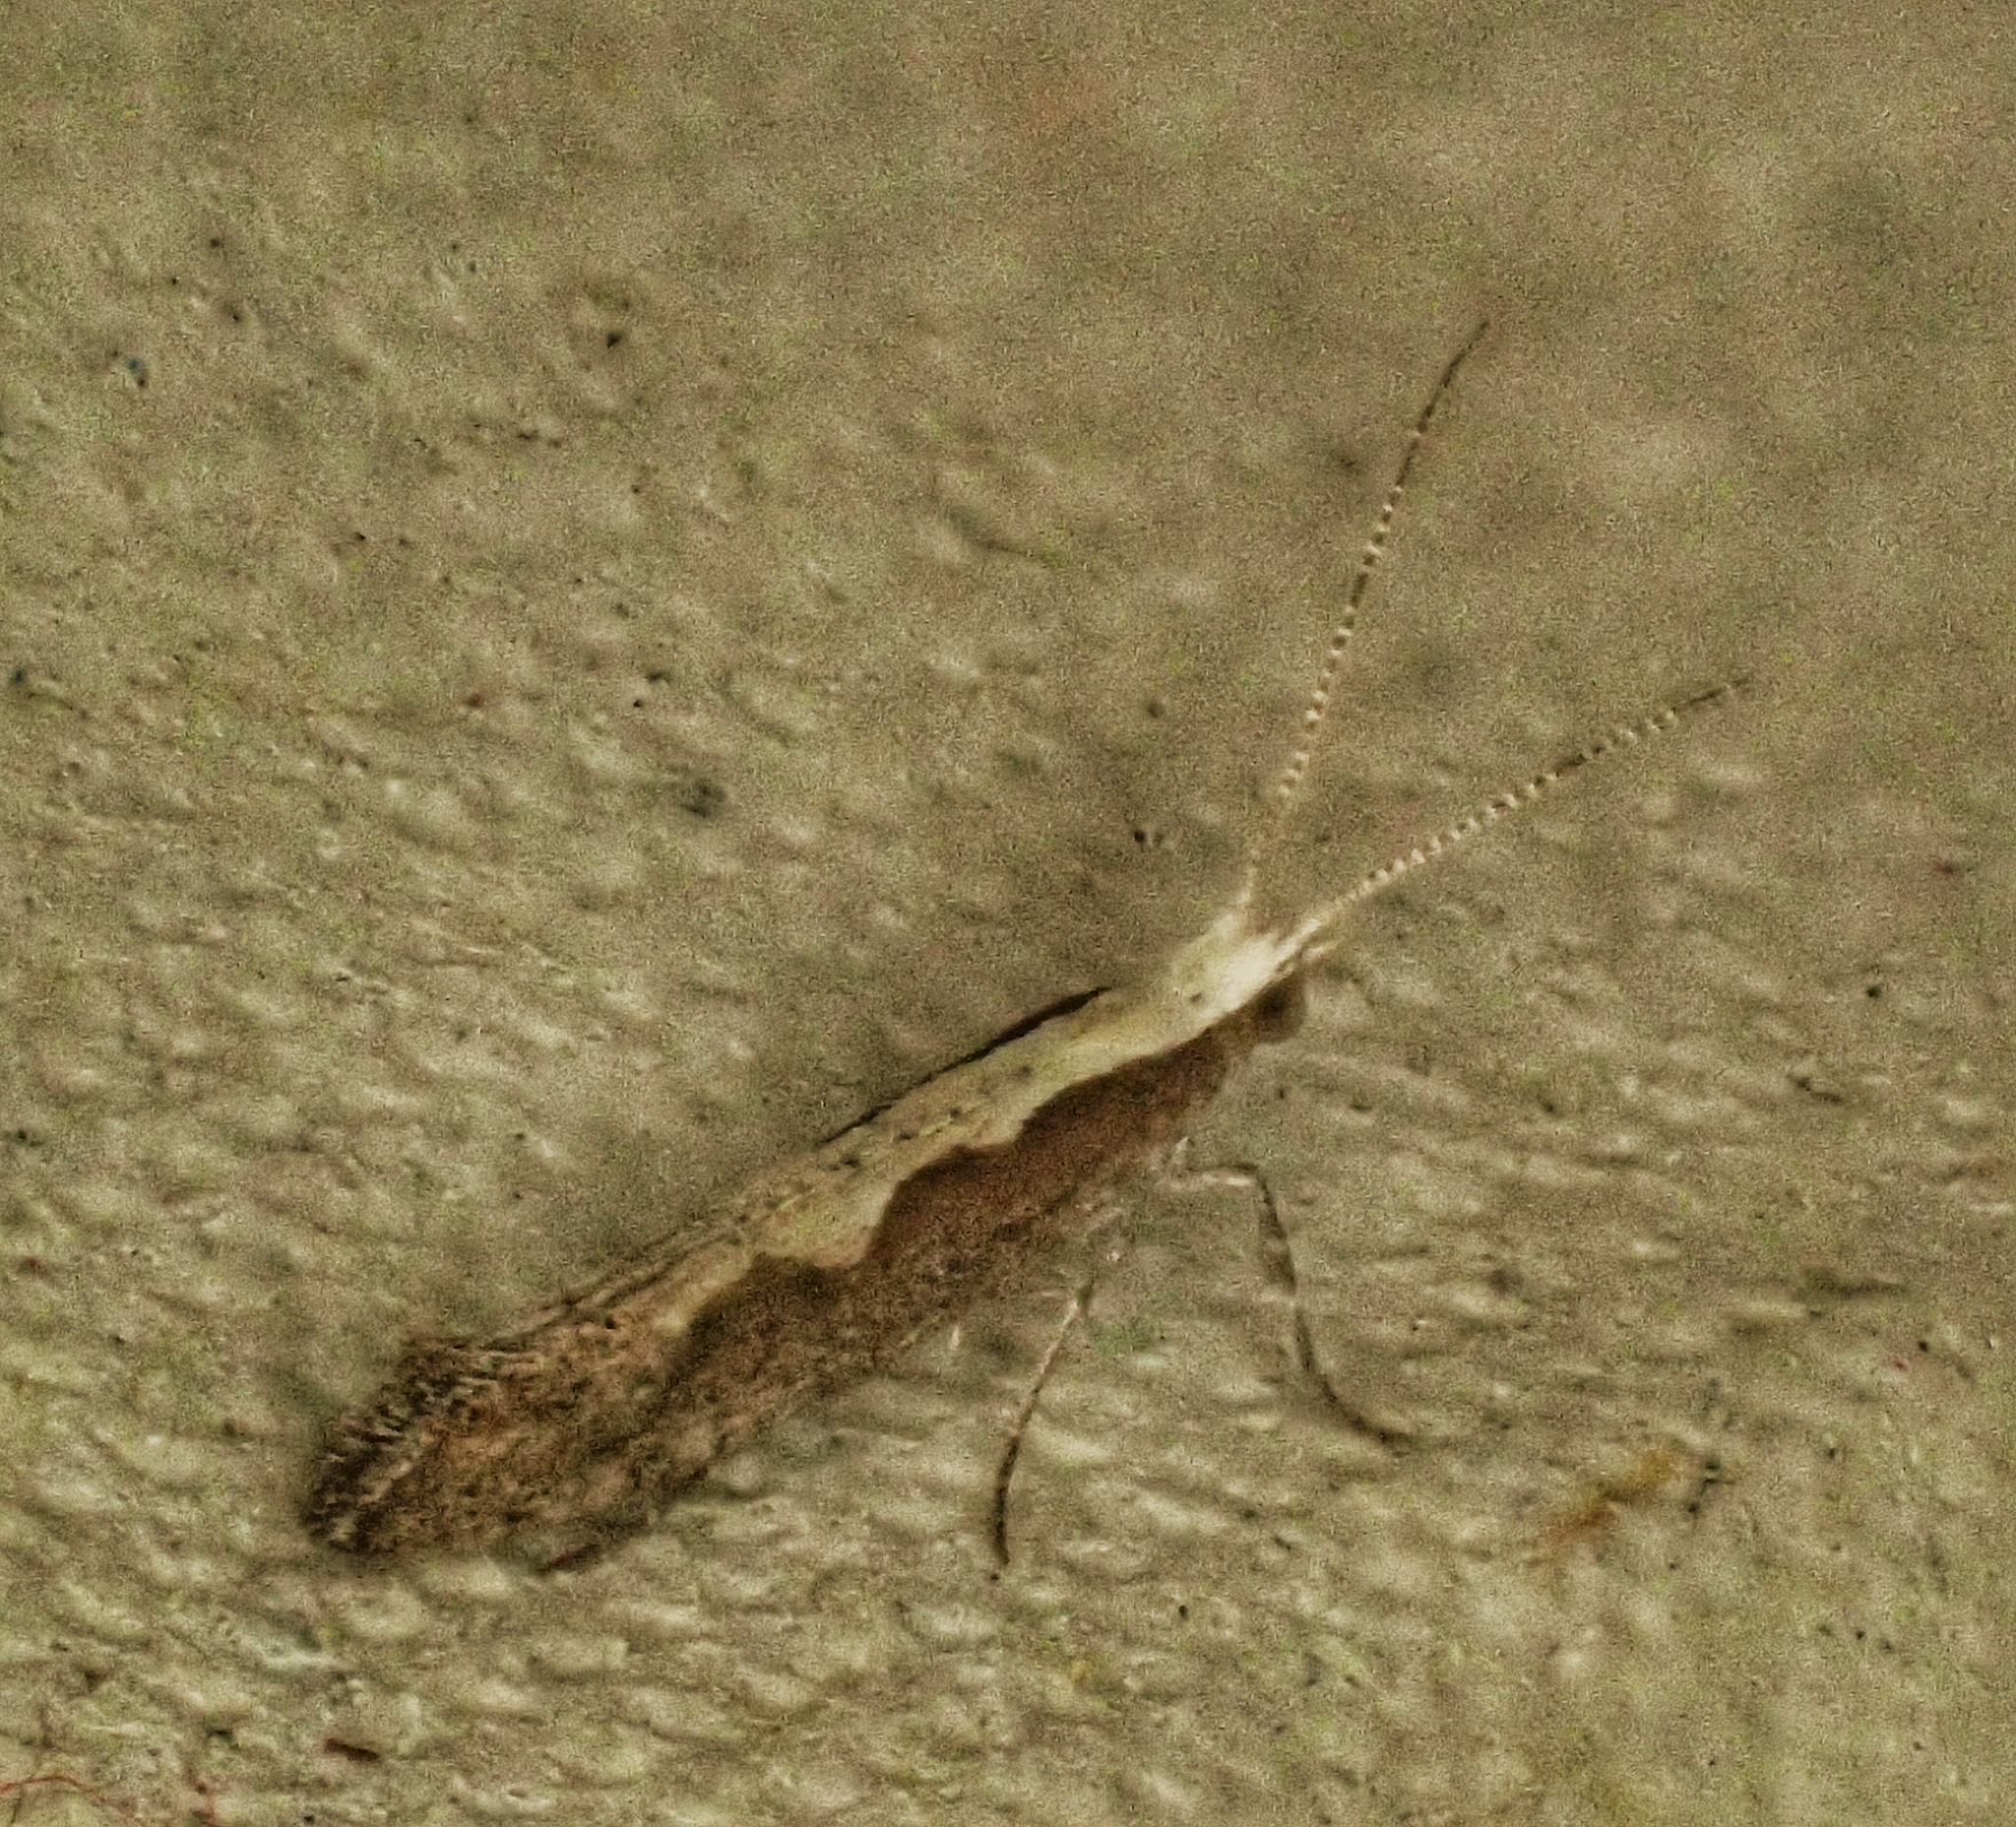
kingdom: Animalia
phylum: Arthropoda
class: Insecta
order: Lepidoptera
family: Plutellidae
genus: Plutella
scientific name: Plutella xylostella
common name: Diamond-back moth
